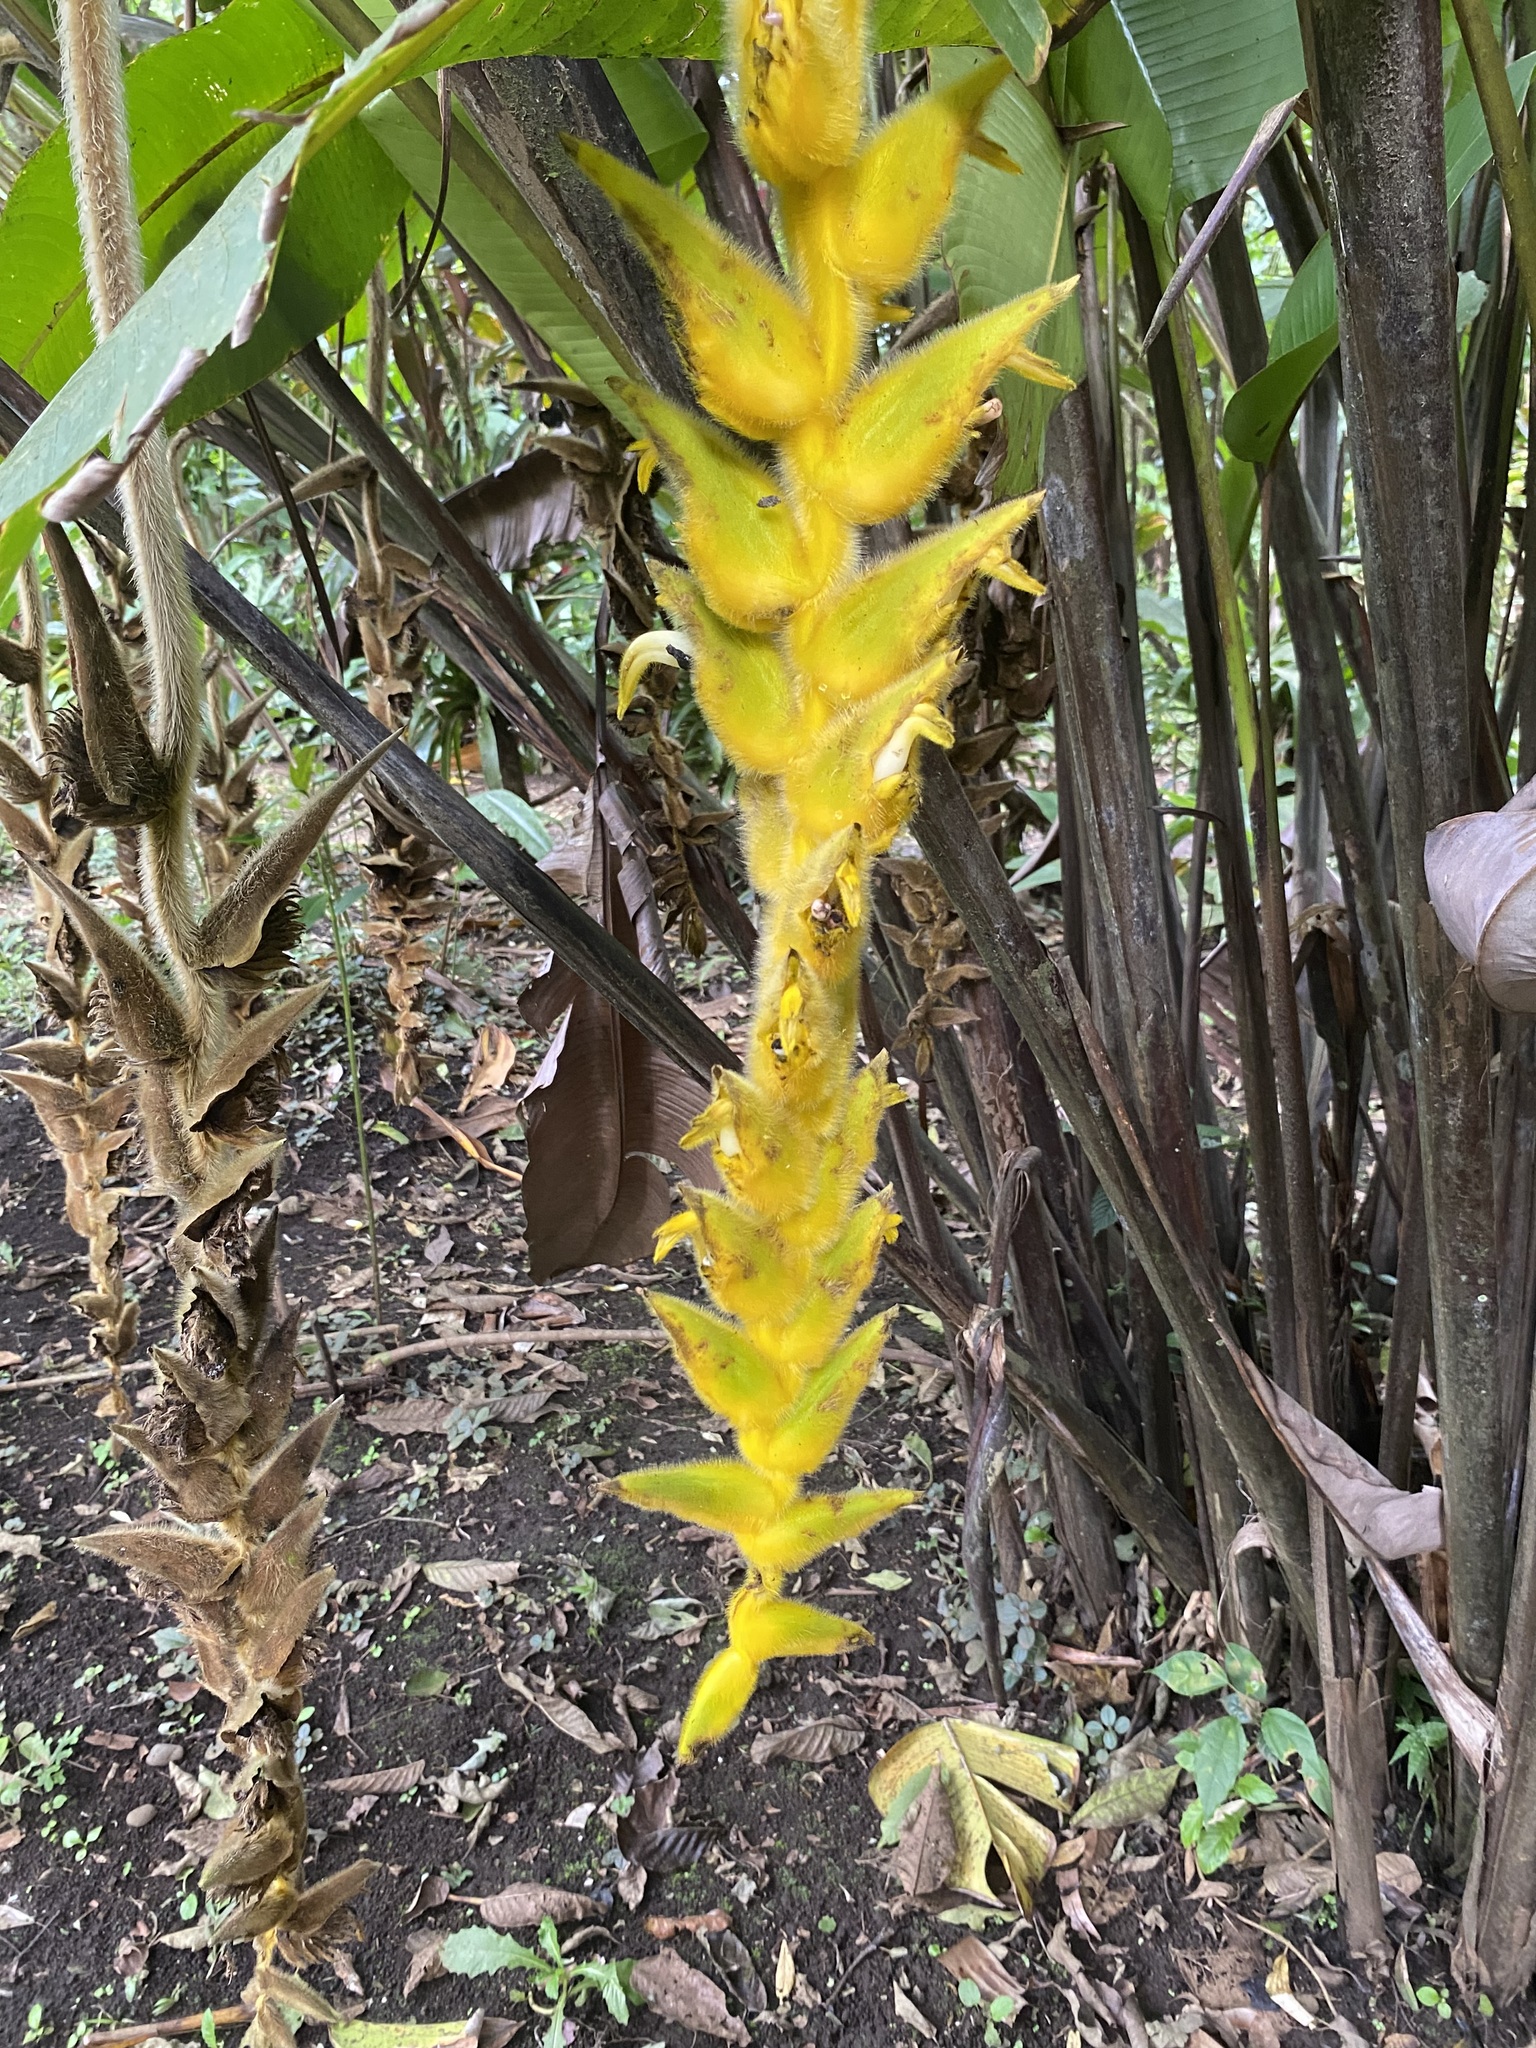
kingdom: Plantae
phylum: Tracheophyta
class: Liliopsida
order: Zingiberales
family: Heliconiaceae
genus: Heliconia
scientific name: Heliconia xanthovillosa
